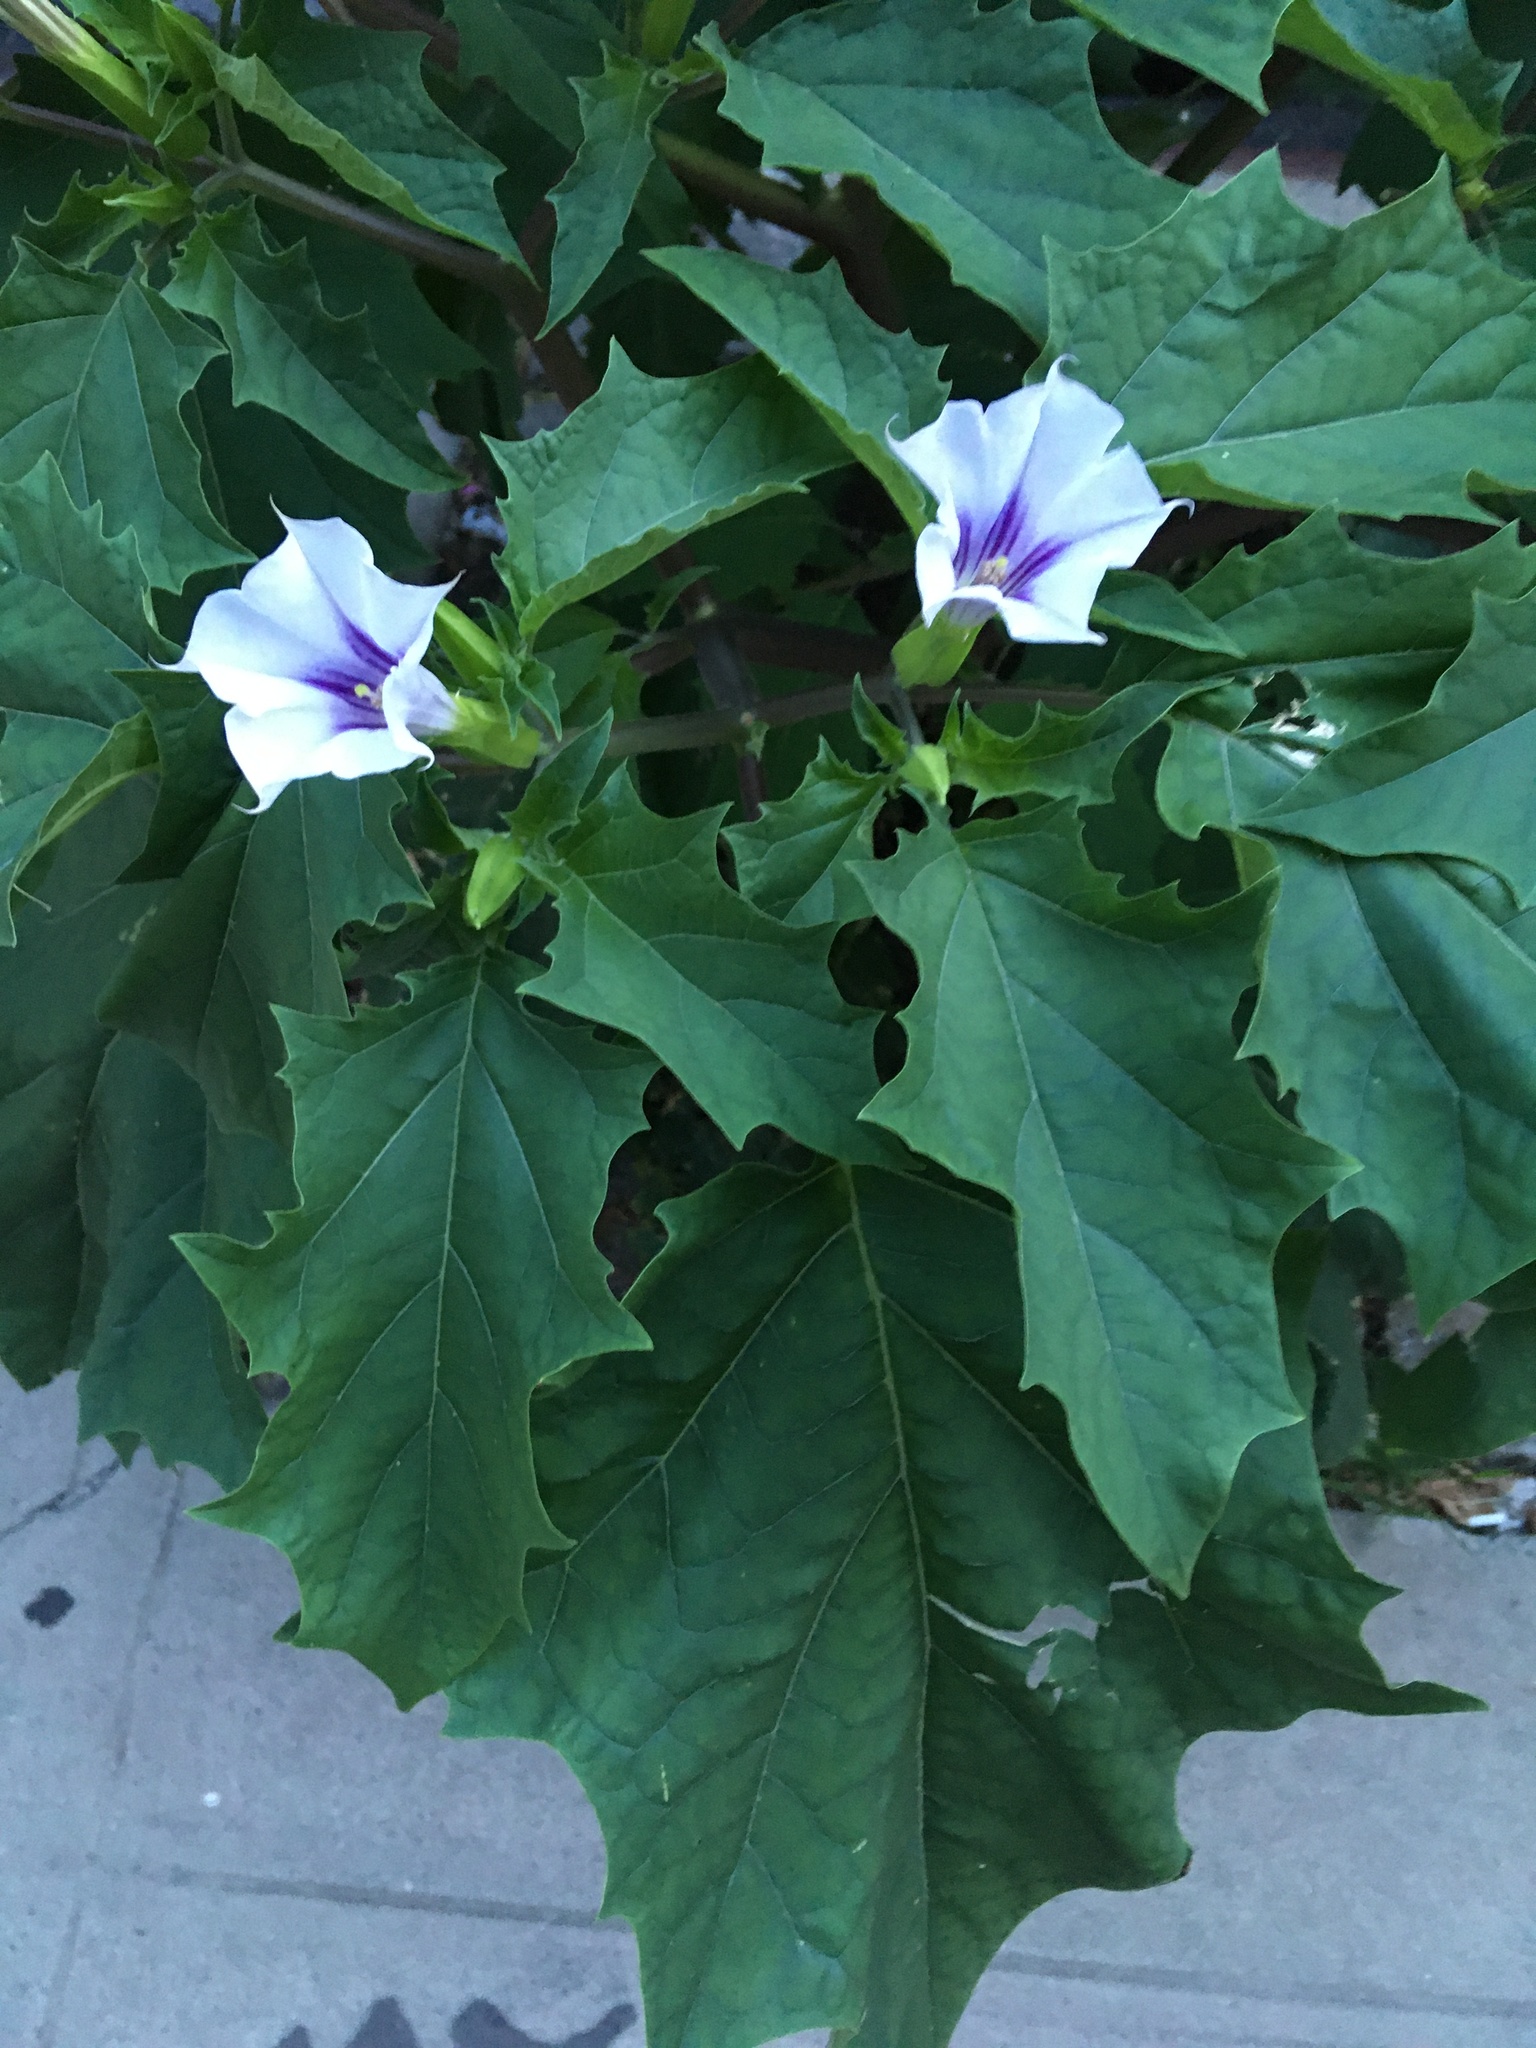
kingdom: Plantae
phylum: Tracheophyta
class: Magnoliopsida
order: Solanales
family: Solanaceae
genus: Datura
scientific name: Datura stramonium
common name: Thorn-apple
